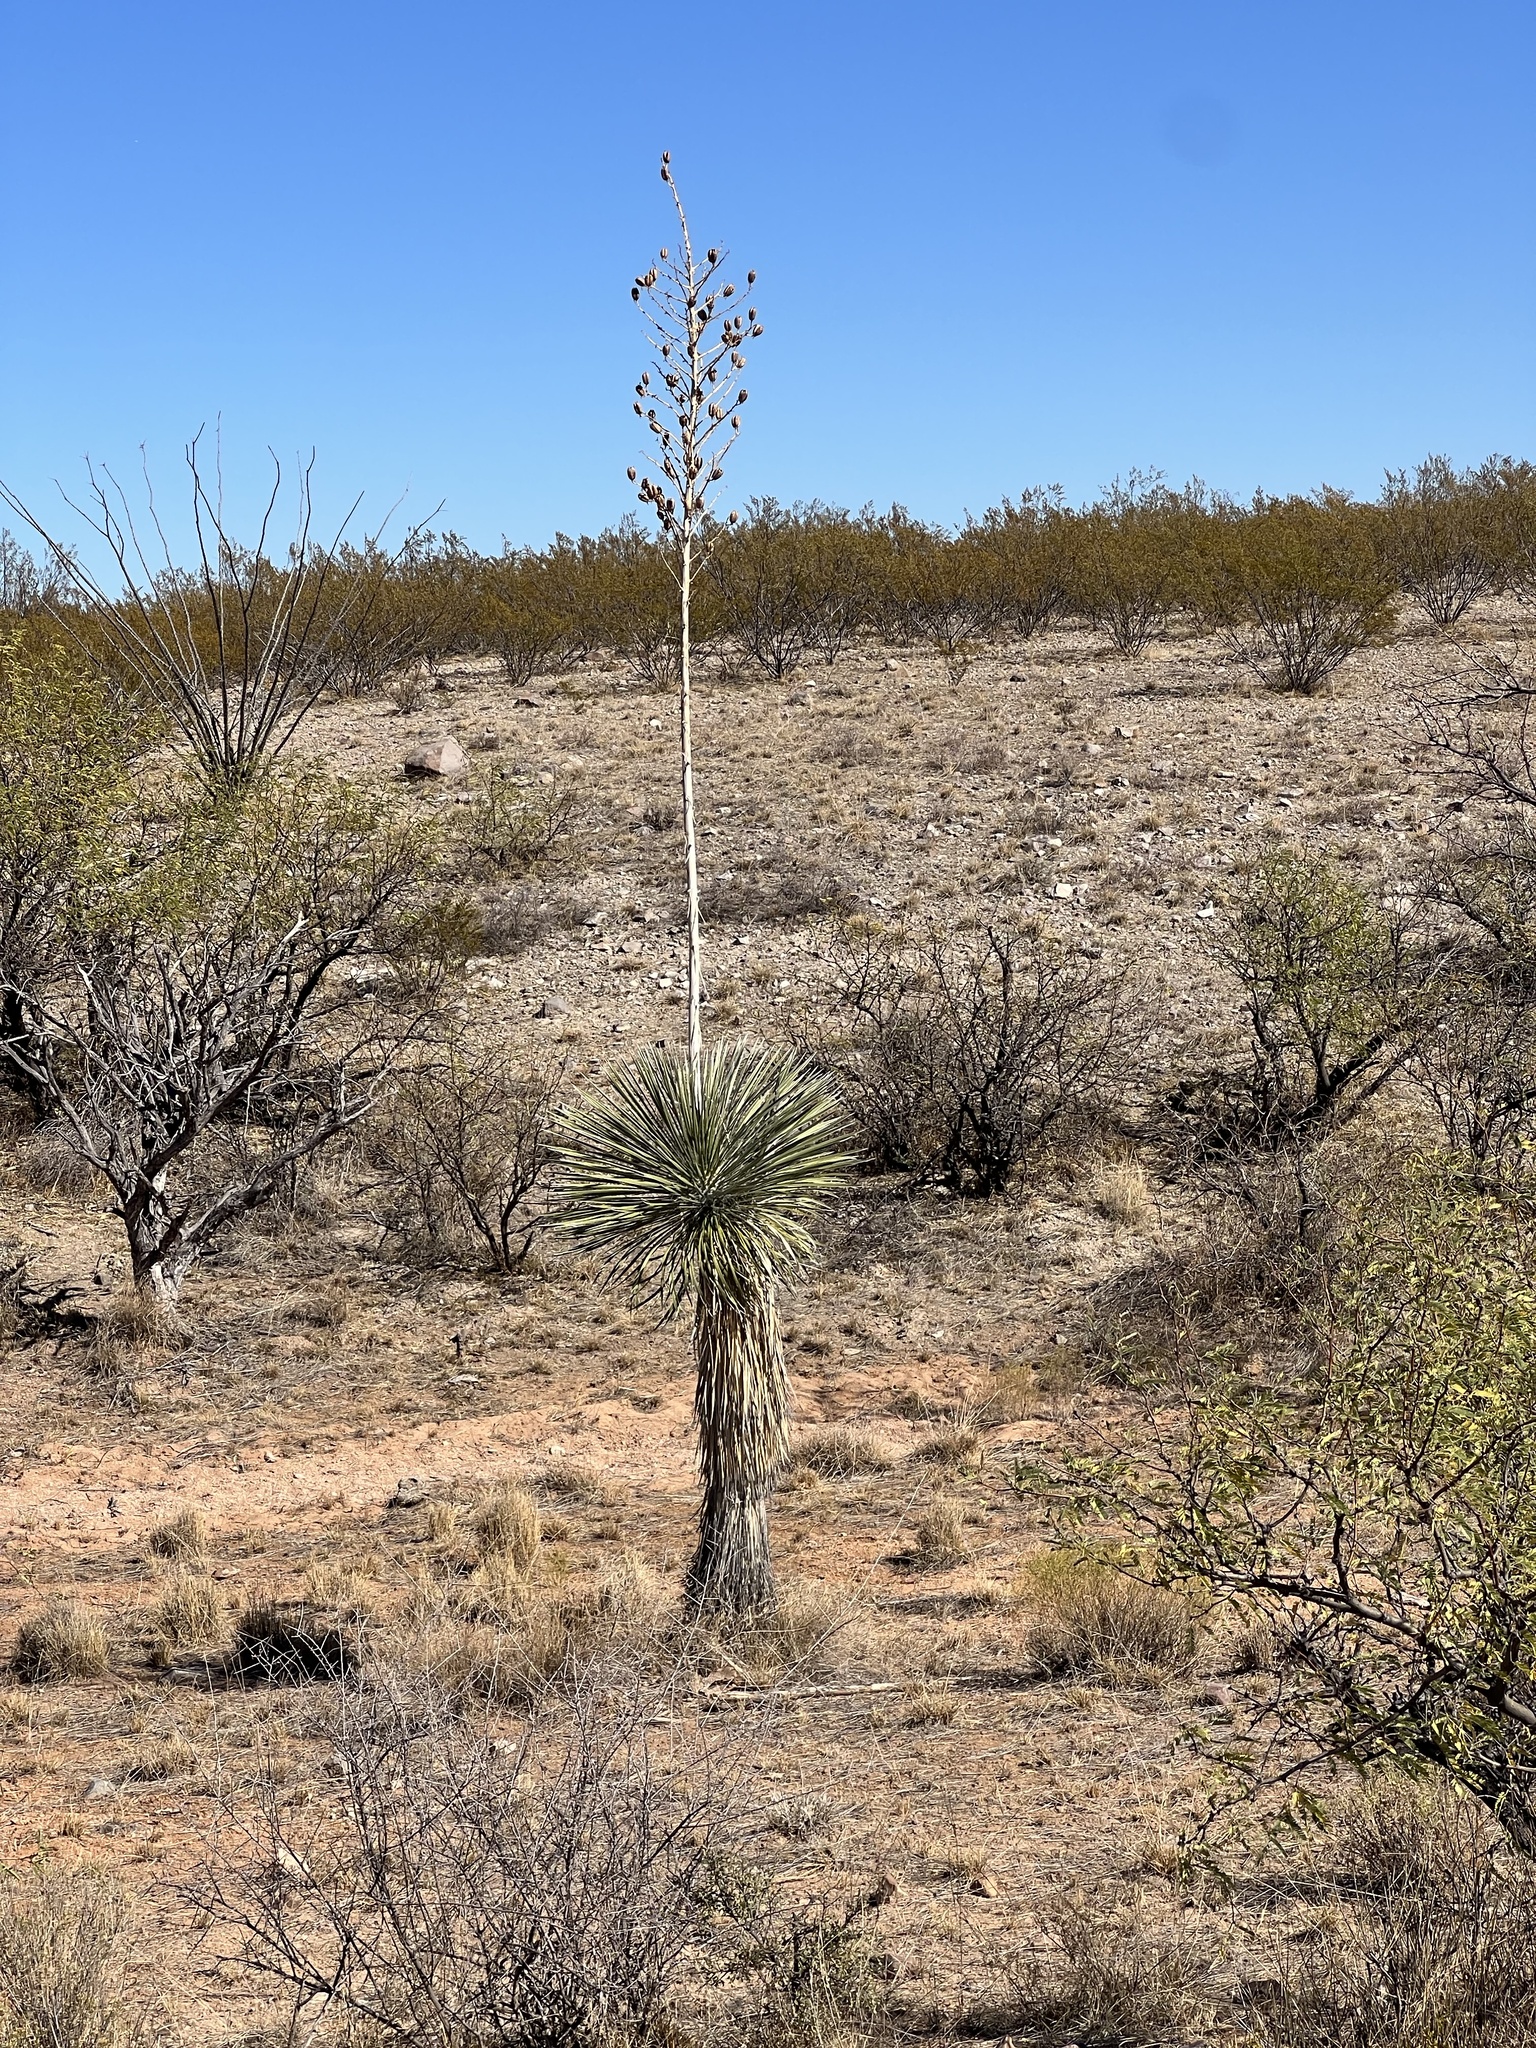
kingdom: Plantae
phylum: Tracheophyta
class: Liliopsida
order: Asparagales
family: Asparagaceae
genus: Yucca
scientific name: Yucca elata
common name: Palmella
